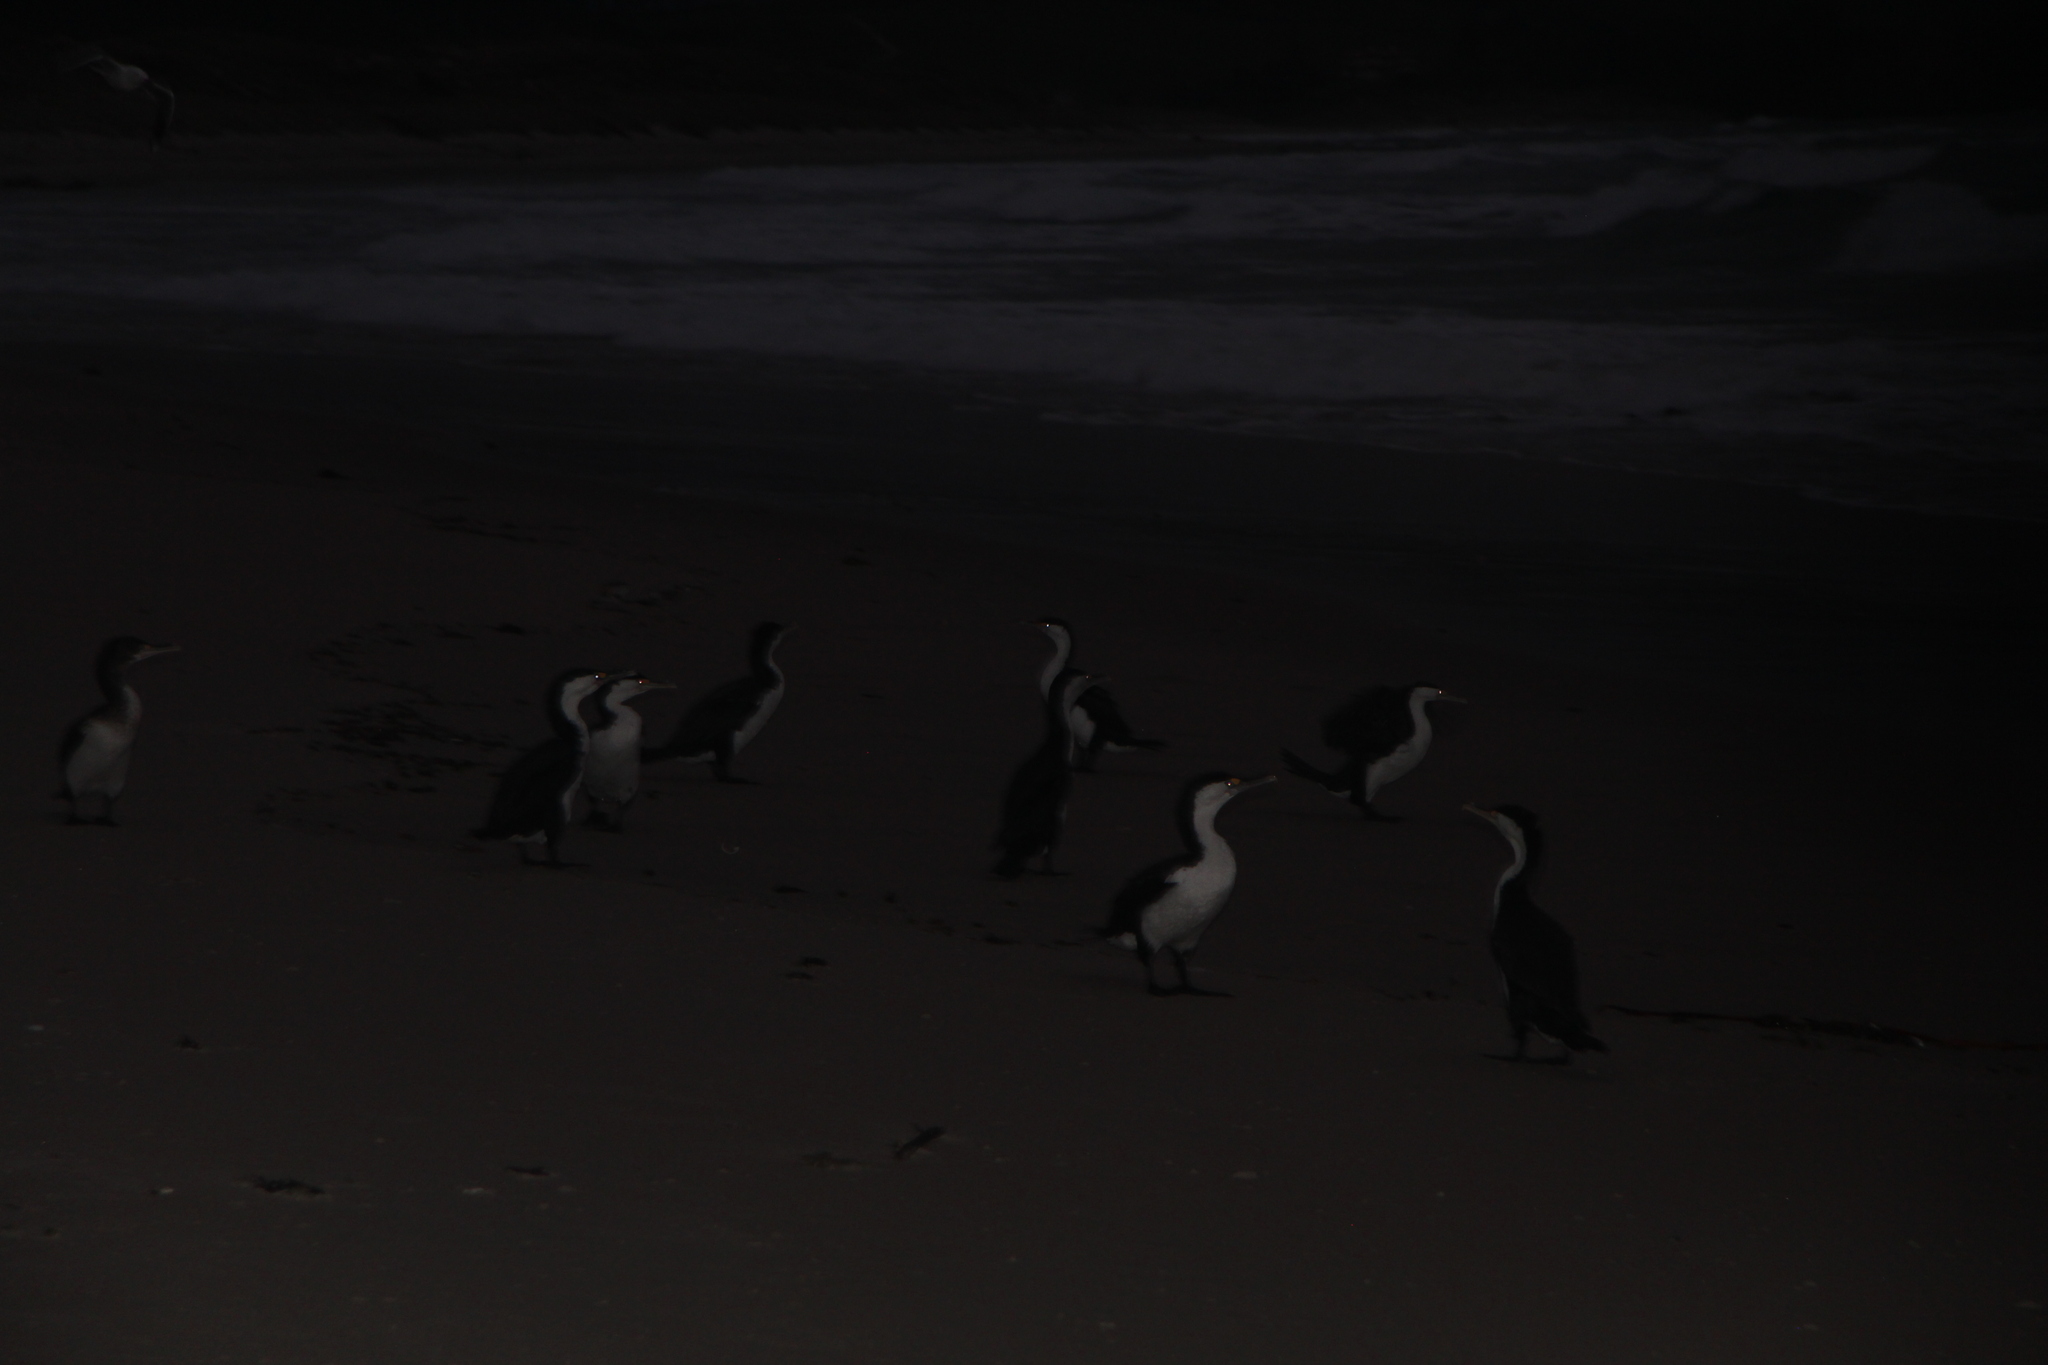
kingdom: Animalia
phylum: Chordata
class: Aves
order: Suliformes
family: Phalacrocoracidae
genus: Phalacrocorax
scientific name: Phalacrocorax varius
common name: Pied cormorant
